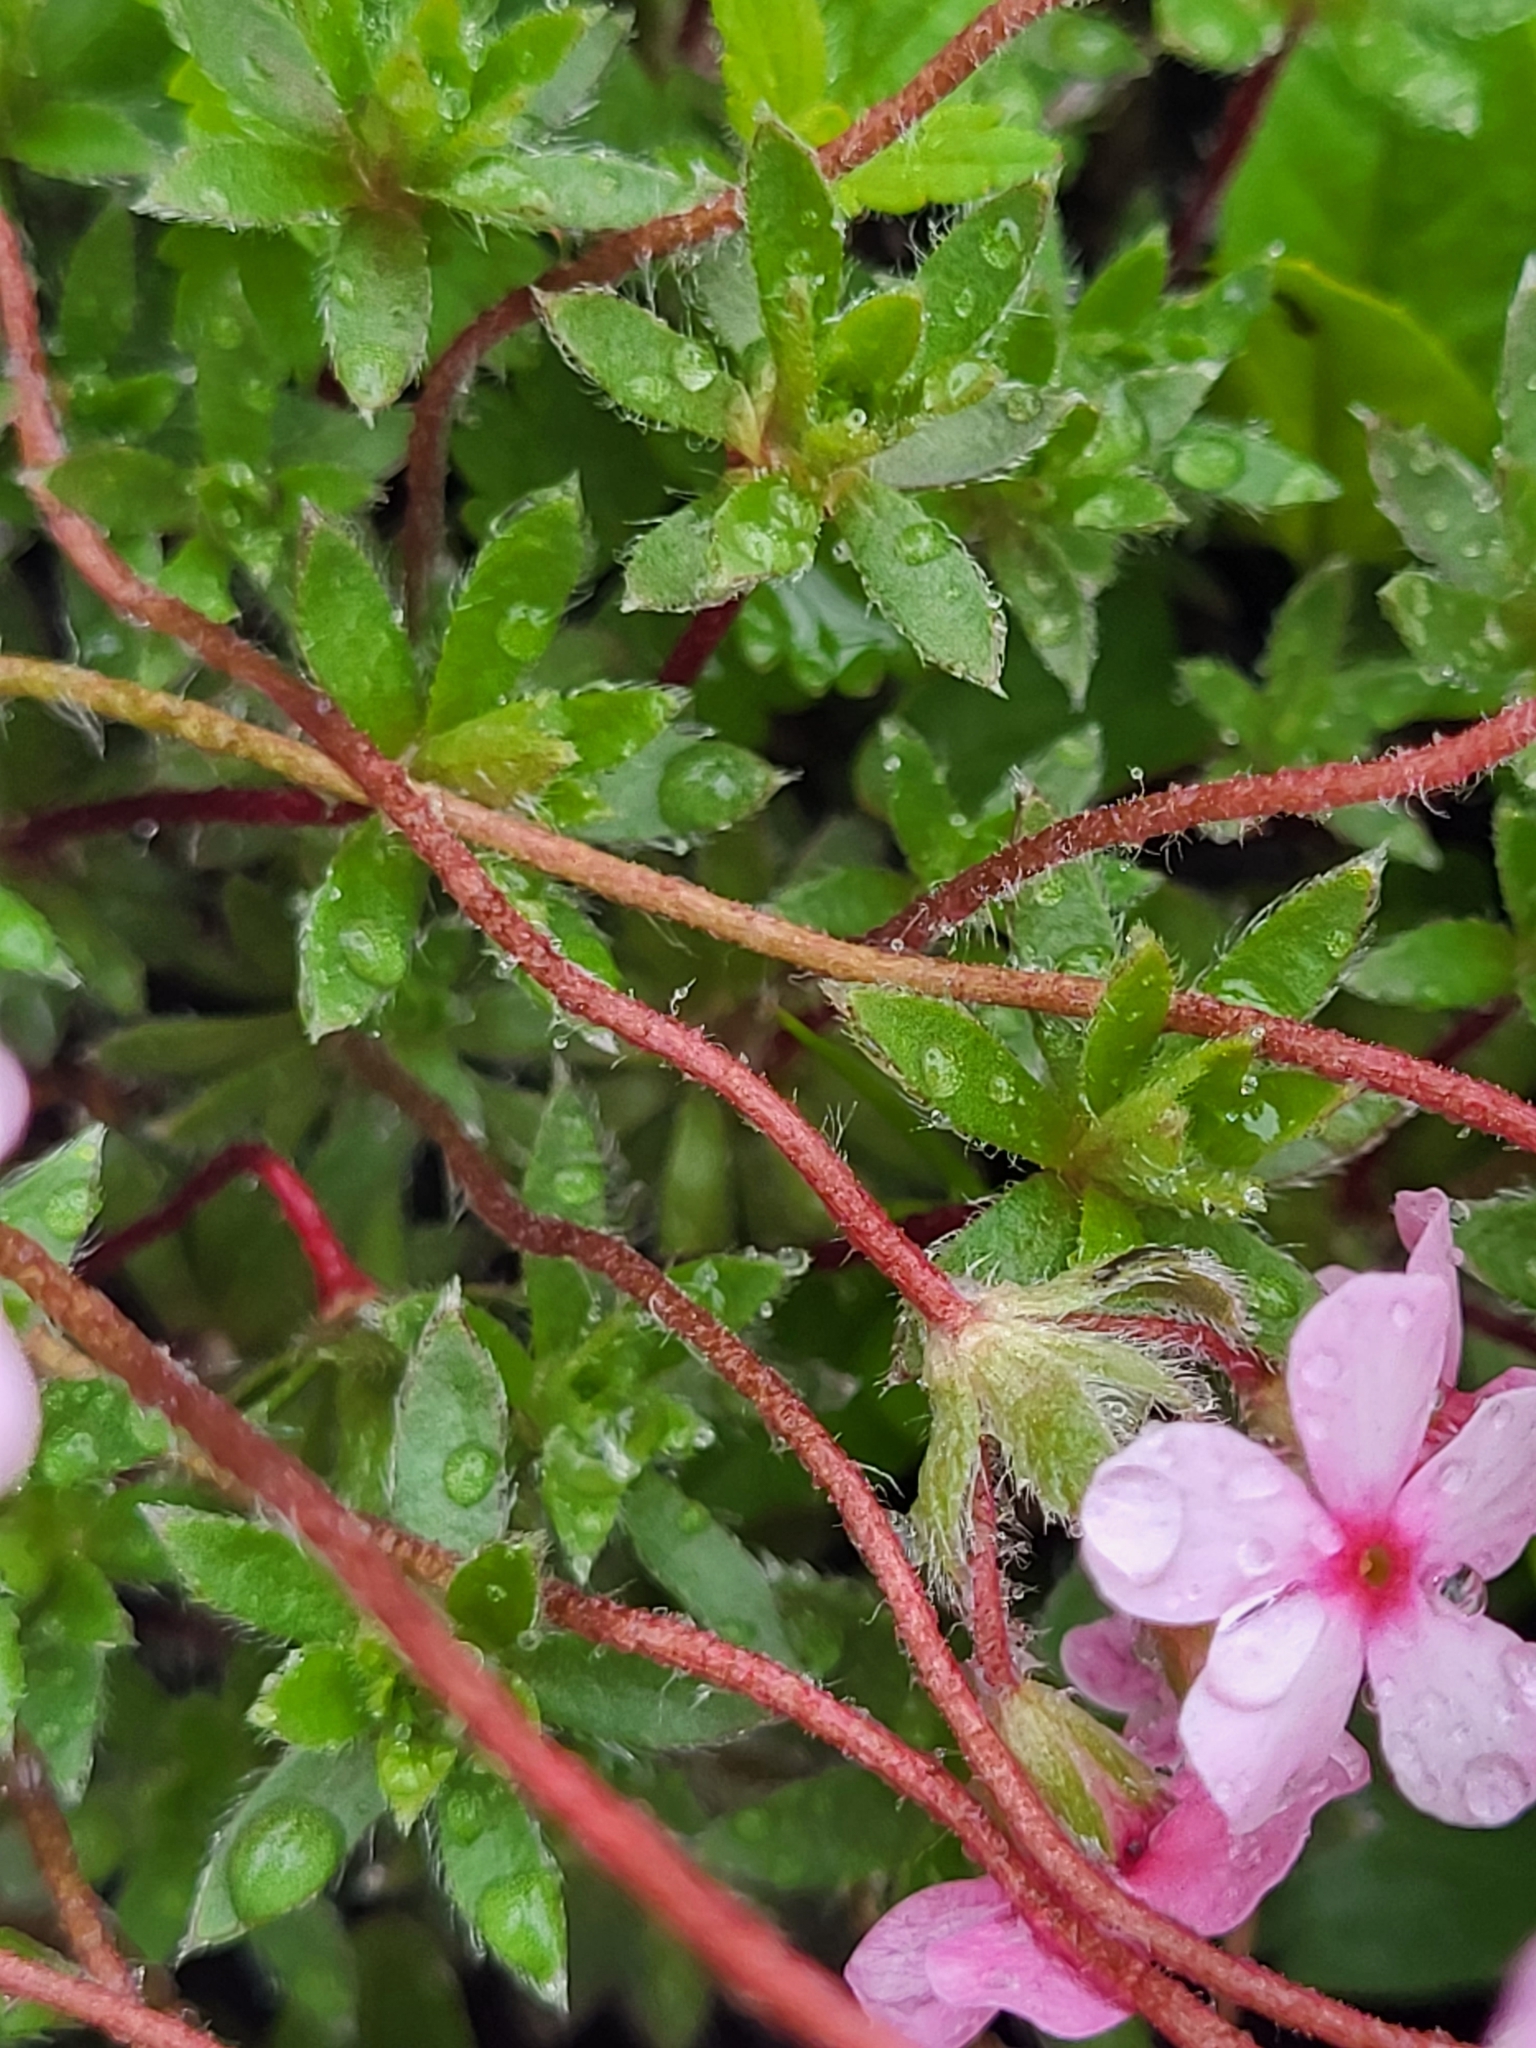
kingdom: Plantae
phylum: Tracheophyta
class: Magnoliopsida
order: Ericales
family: Primulaceae
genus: Androsace
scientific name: Androsace villosa
